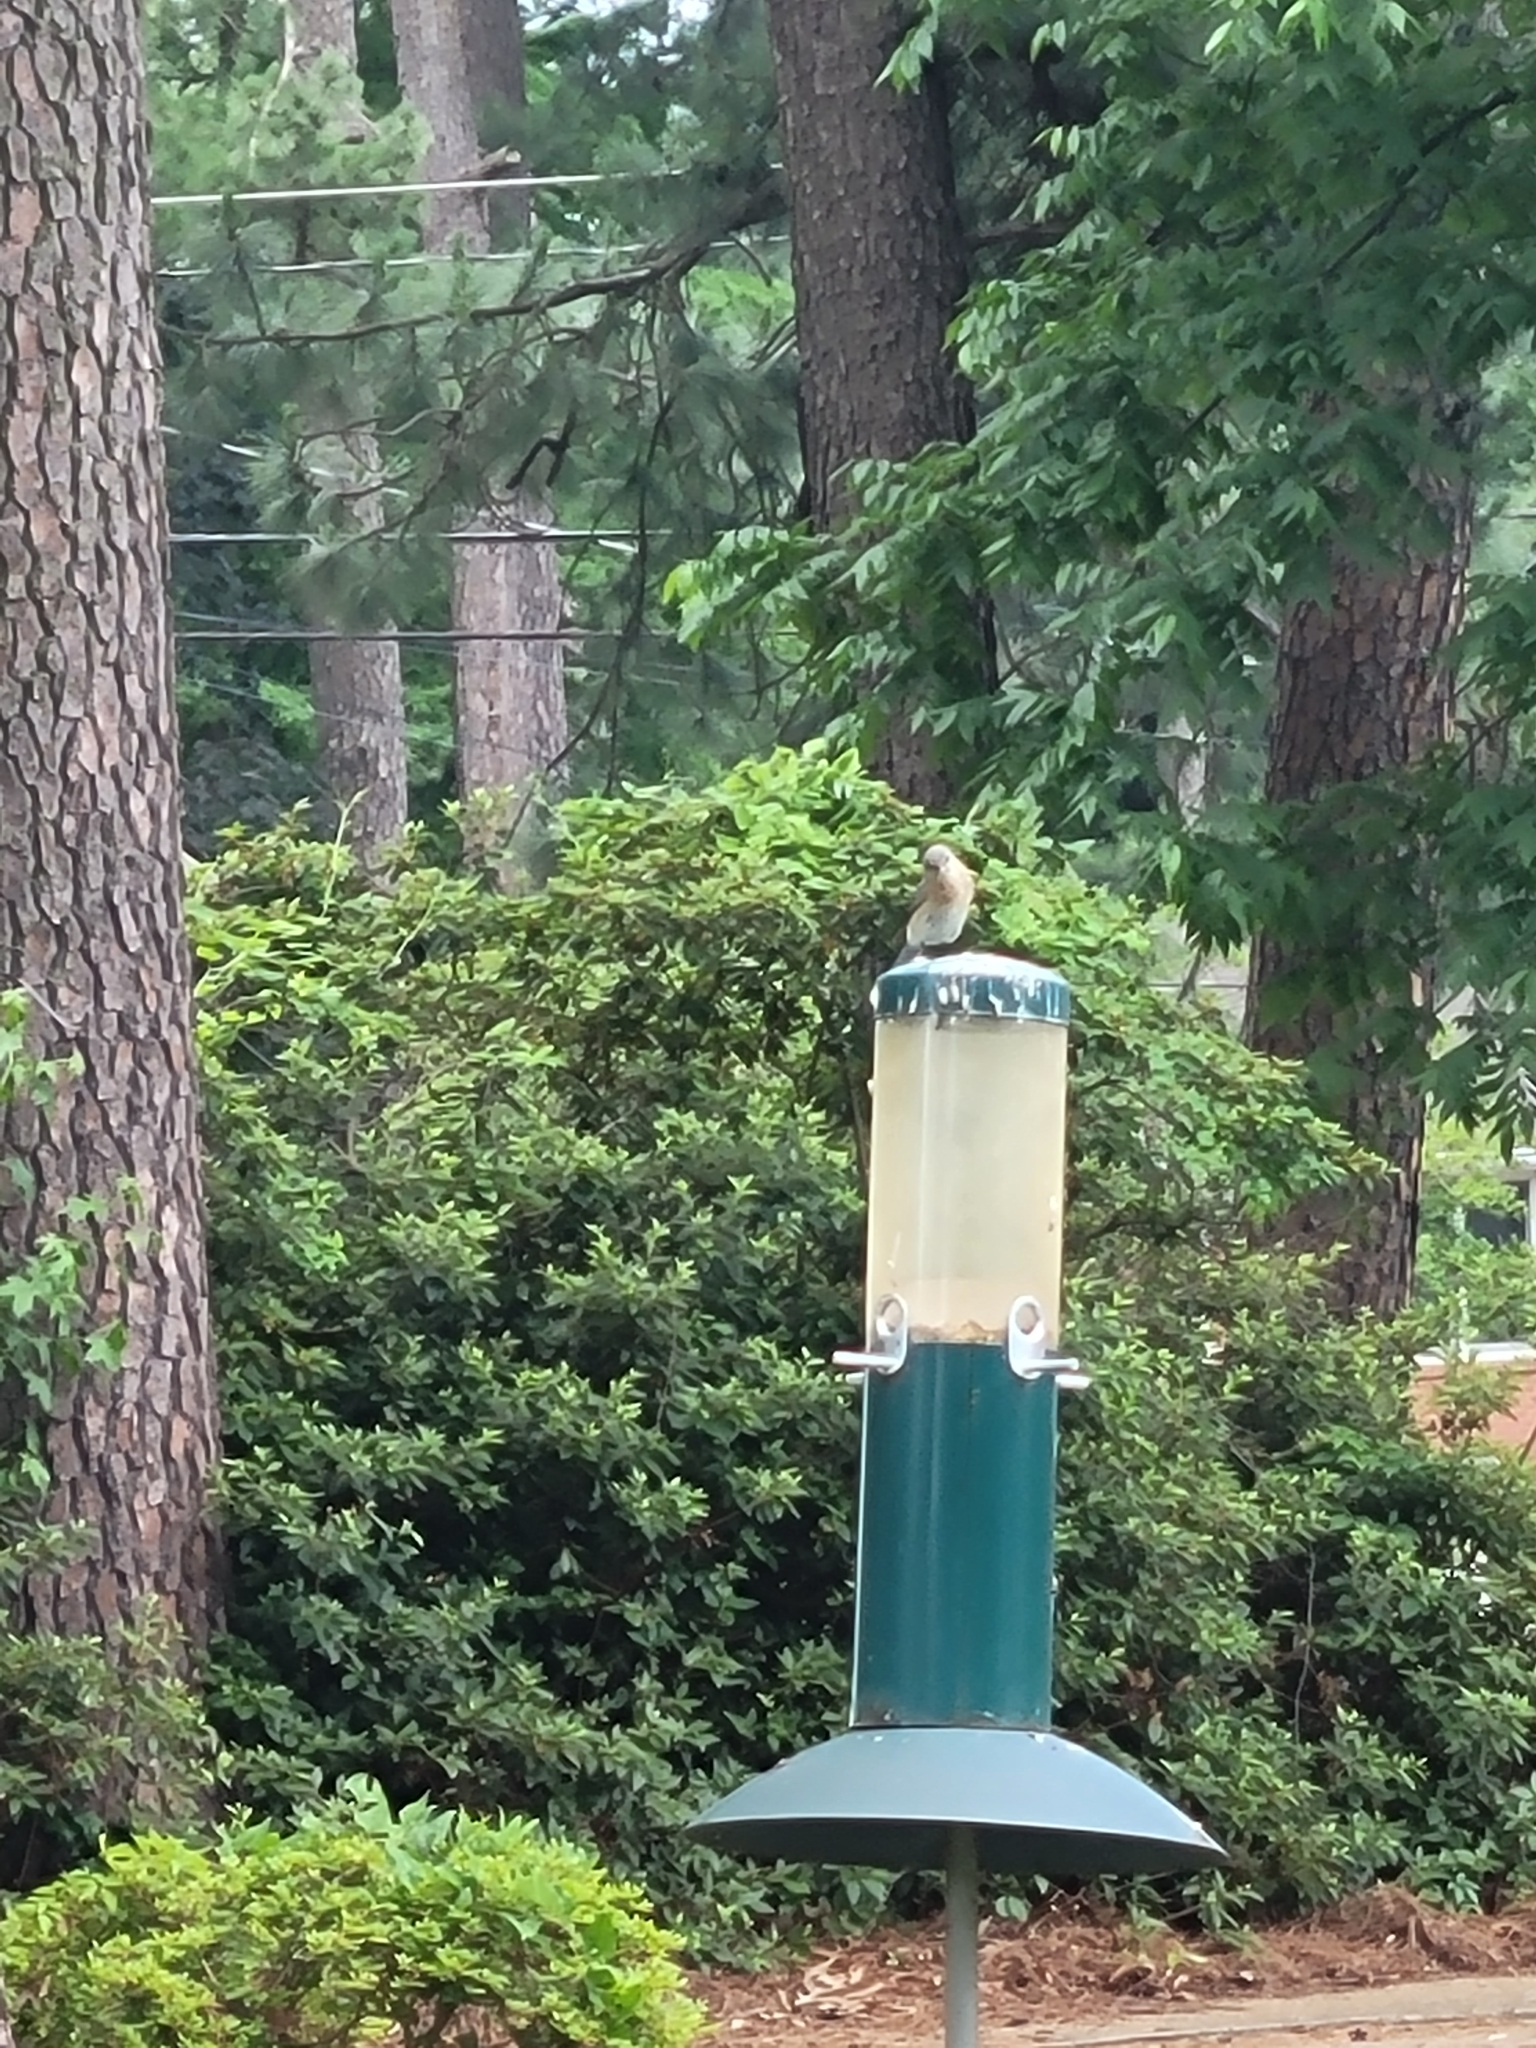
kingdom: Animalia
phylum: Chordata
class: Aves
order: Passeriformes
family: Turdidae
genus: Sialia
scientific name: Sialia sialis
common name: Eastern bluebird
